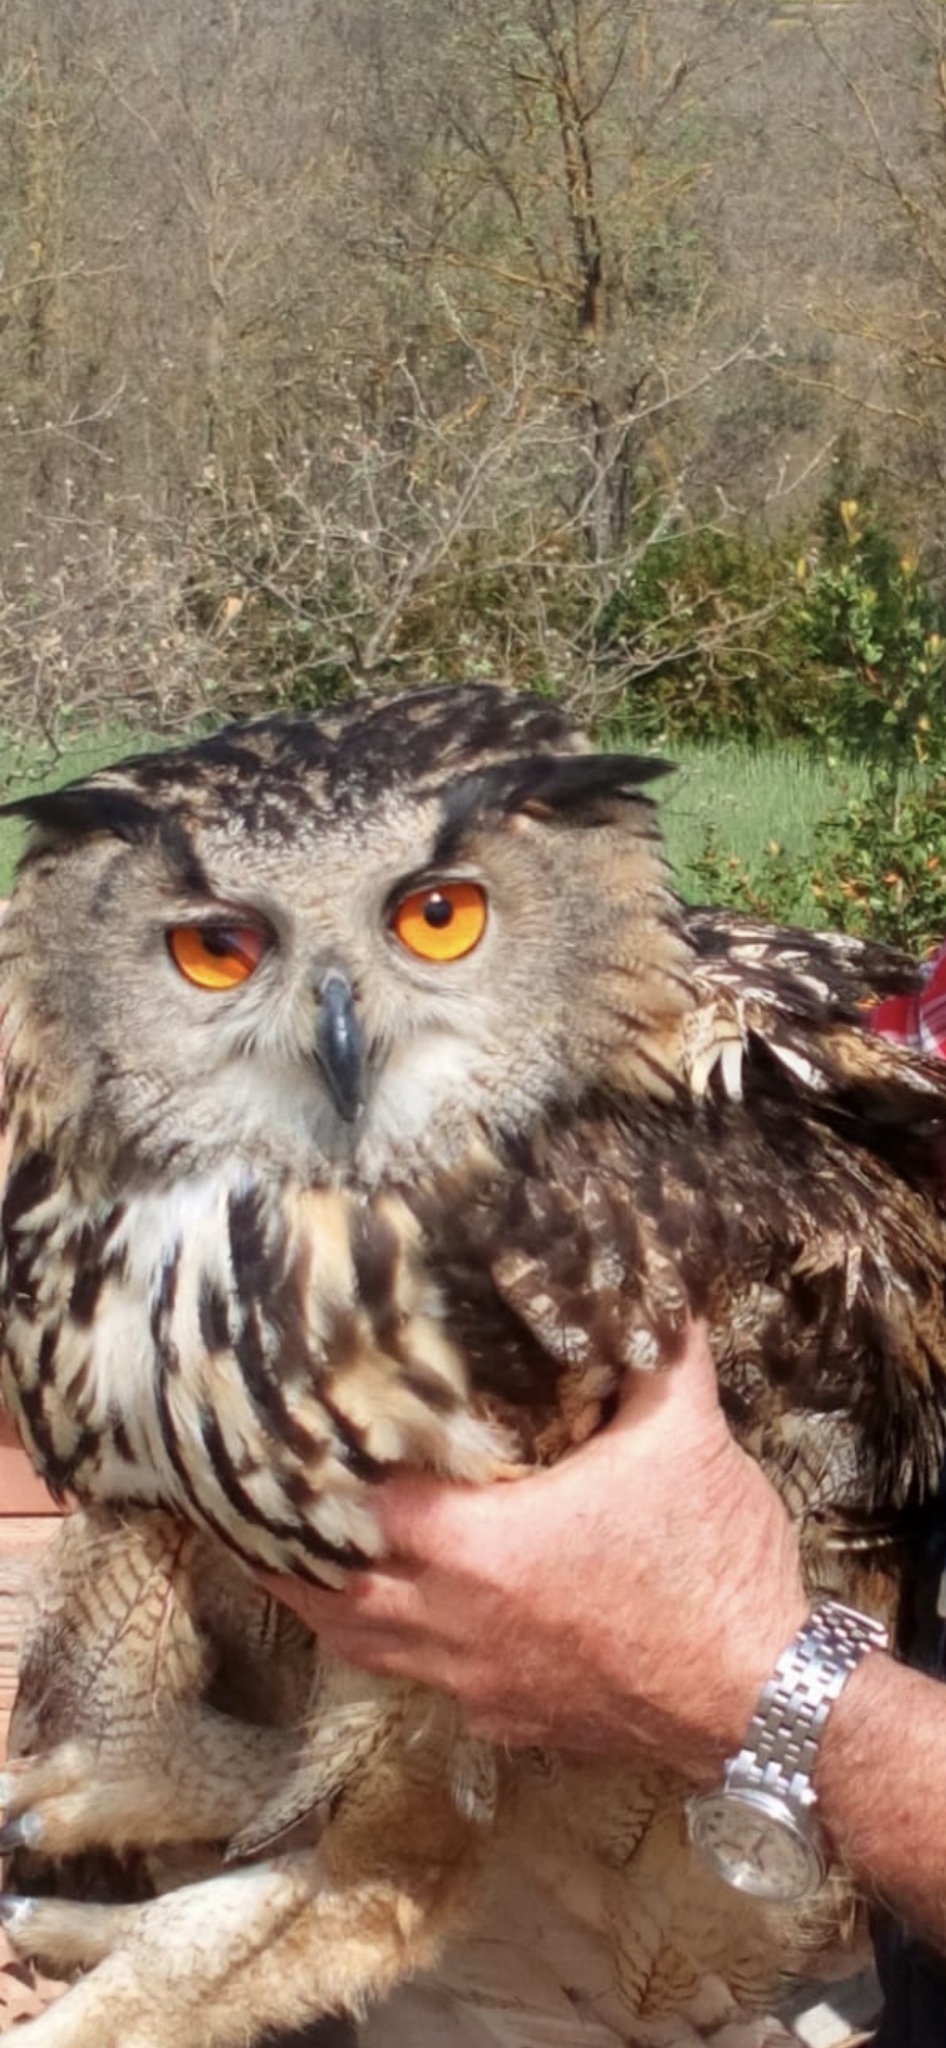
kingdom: Animalia
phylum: Chordata
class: Aves
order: Strigiformes
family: Strigidae
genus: Bubo
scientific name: Bubo bubo
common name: Eurasian eagle-owl
